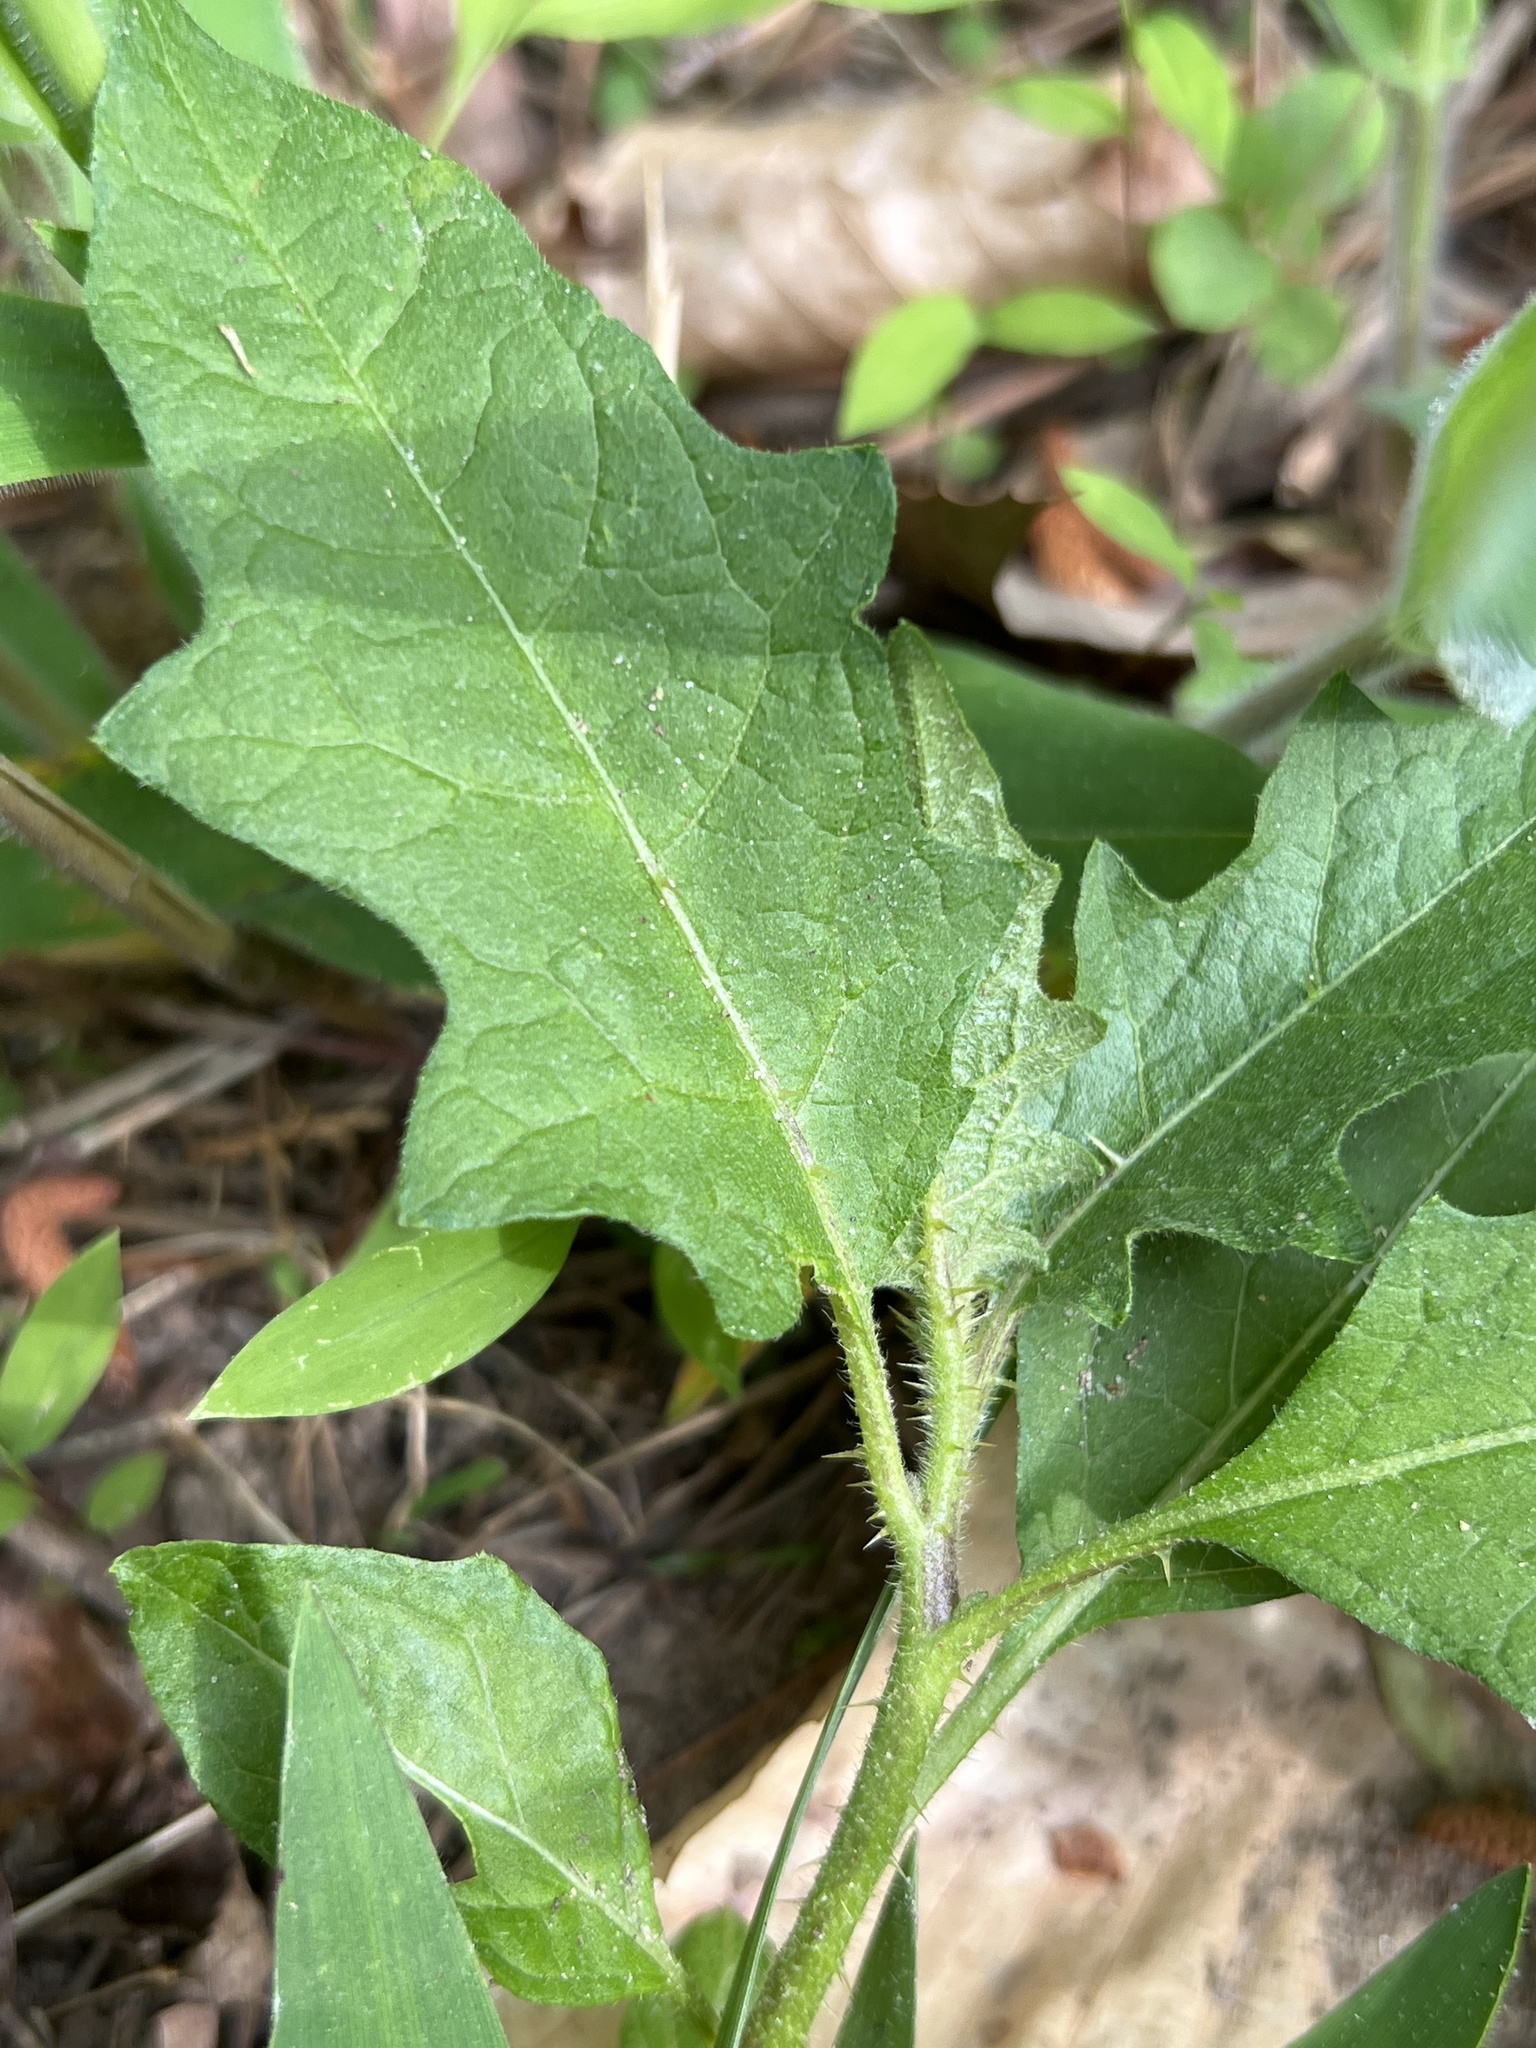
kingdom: Plantae
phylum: Tracheophyta
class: Magnoliopsida
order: Solanales
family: Solanaceae
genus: Solanum
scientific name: Solanum carolinense
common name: Horse-nettle
